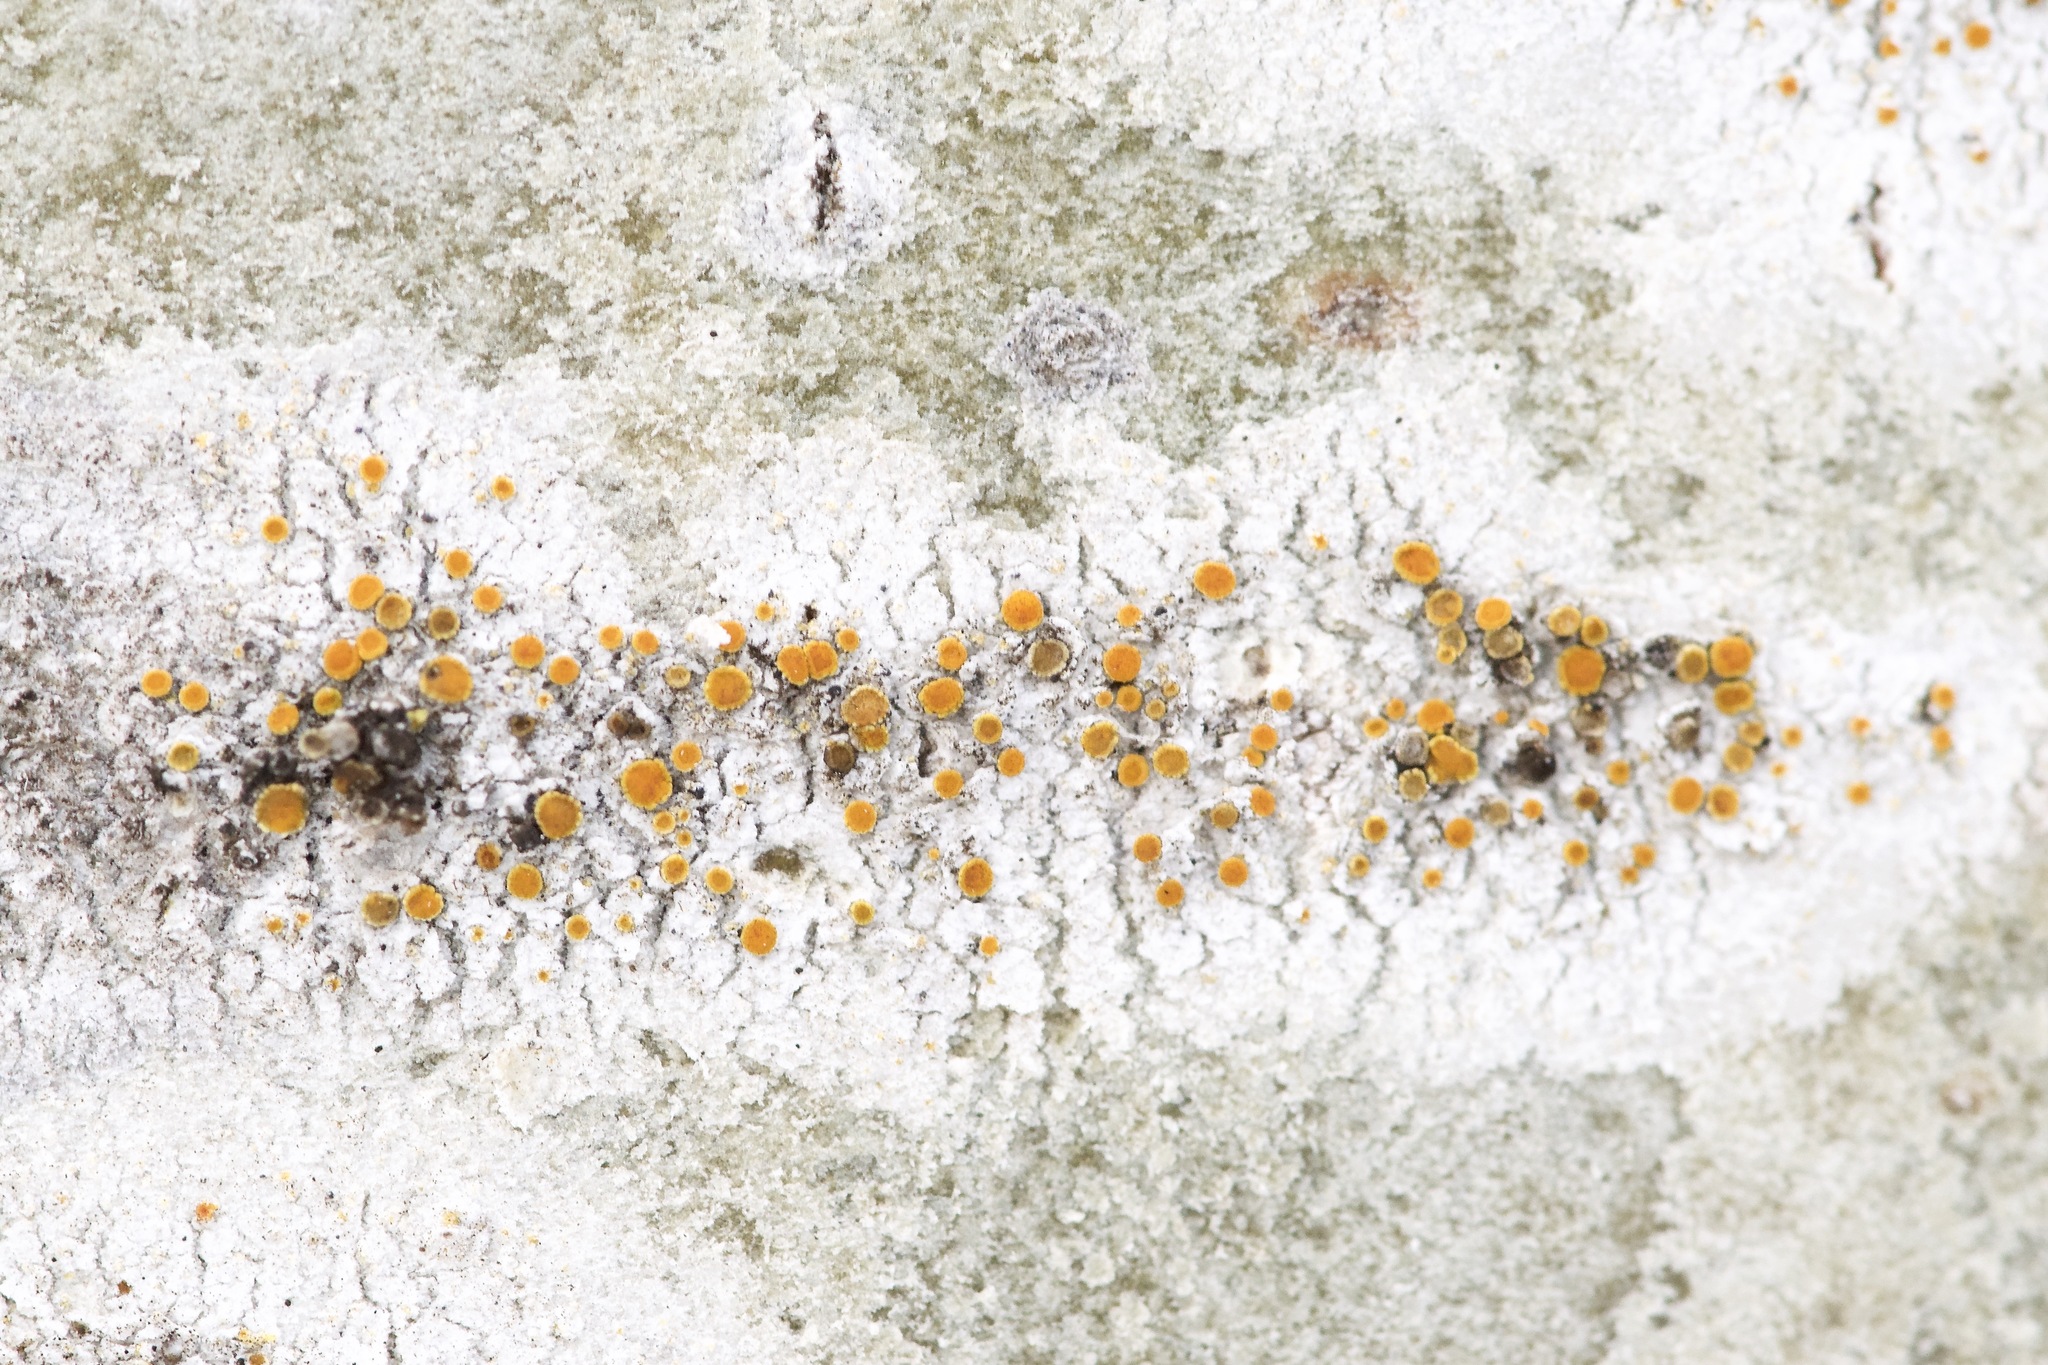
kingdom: Fungi
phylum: Ascomycota
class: Lecanoromycetes
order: Teloschistales
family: Teloschistaceae
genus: Athallia
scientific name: Athallia pyracea
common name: Flaming firedot lichen
